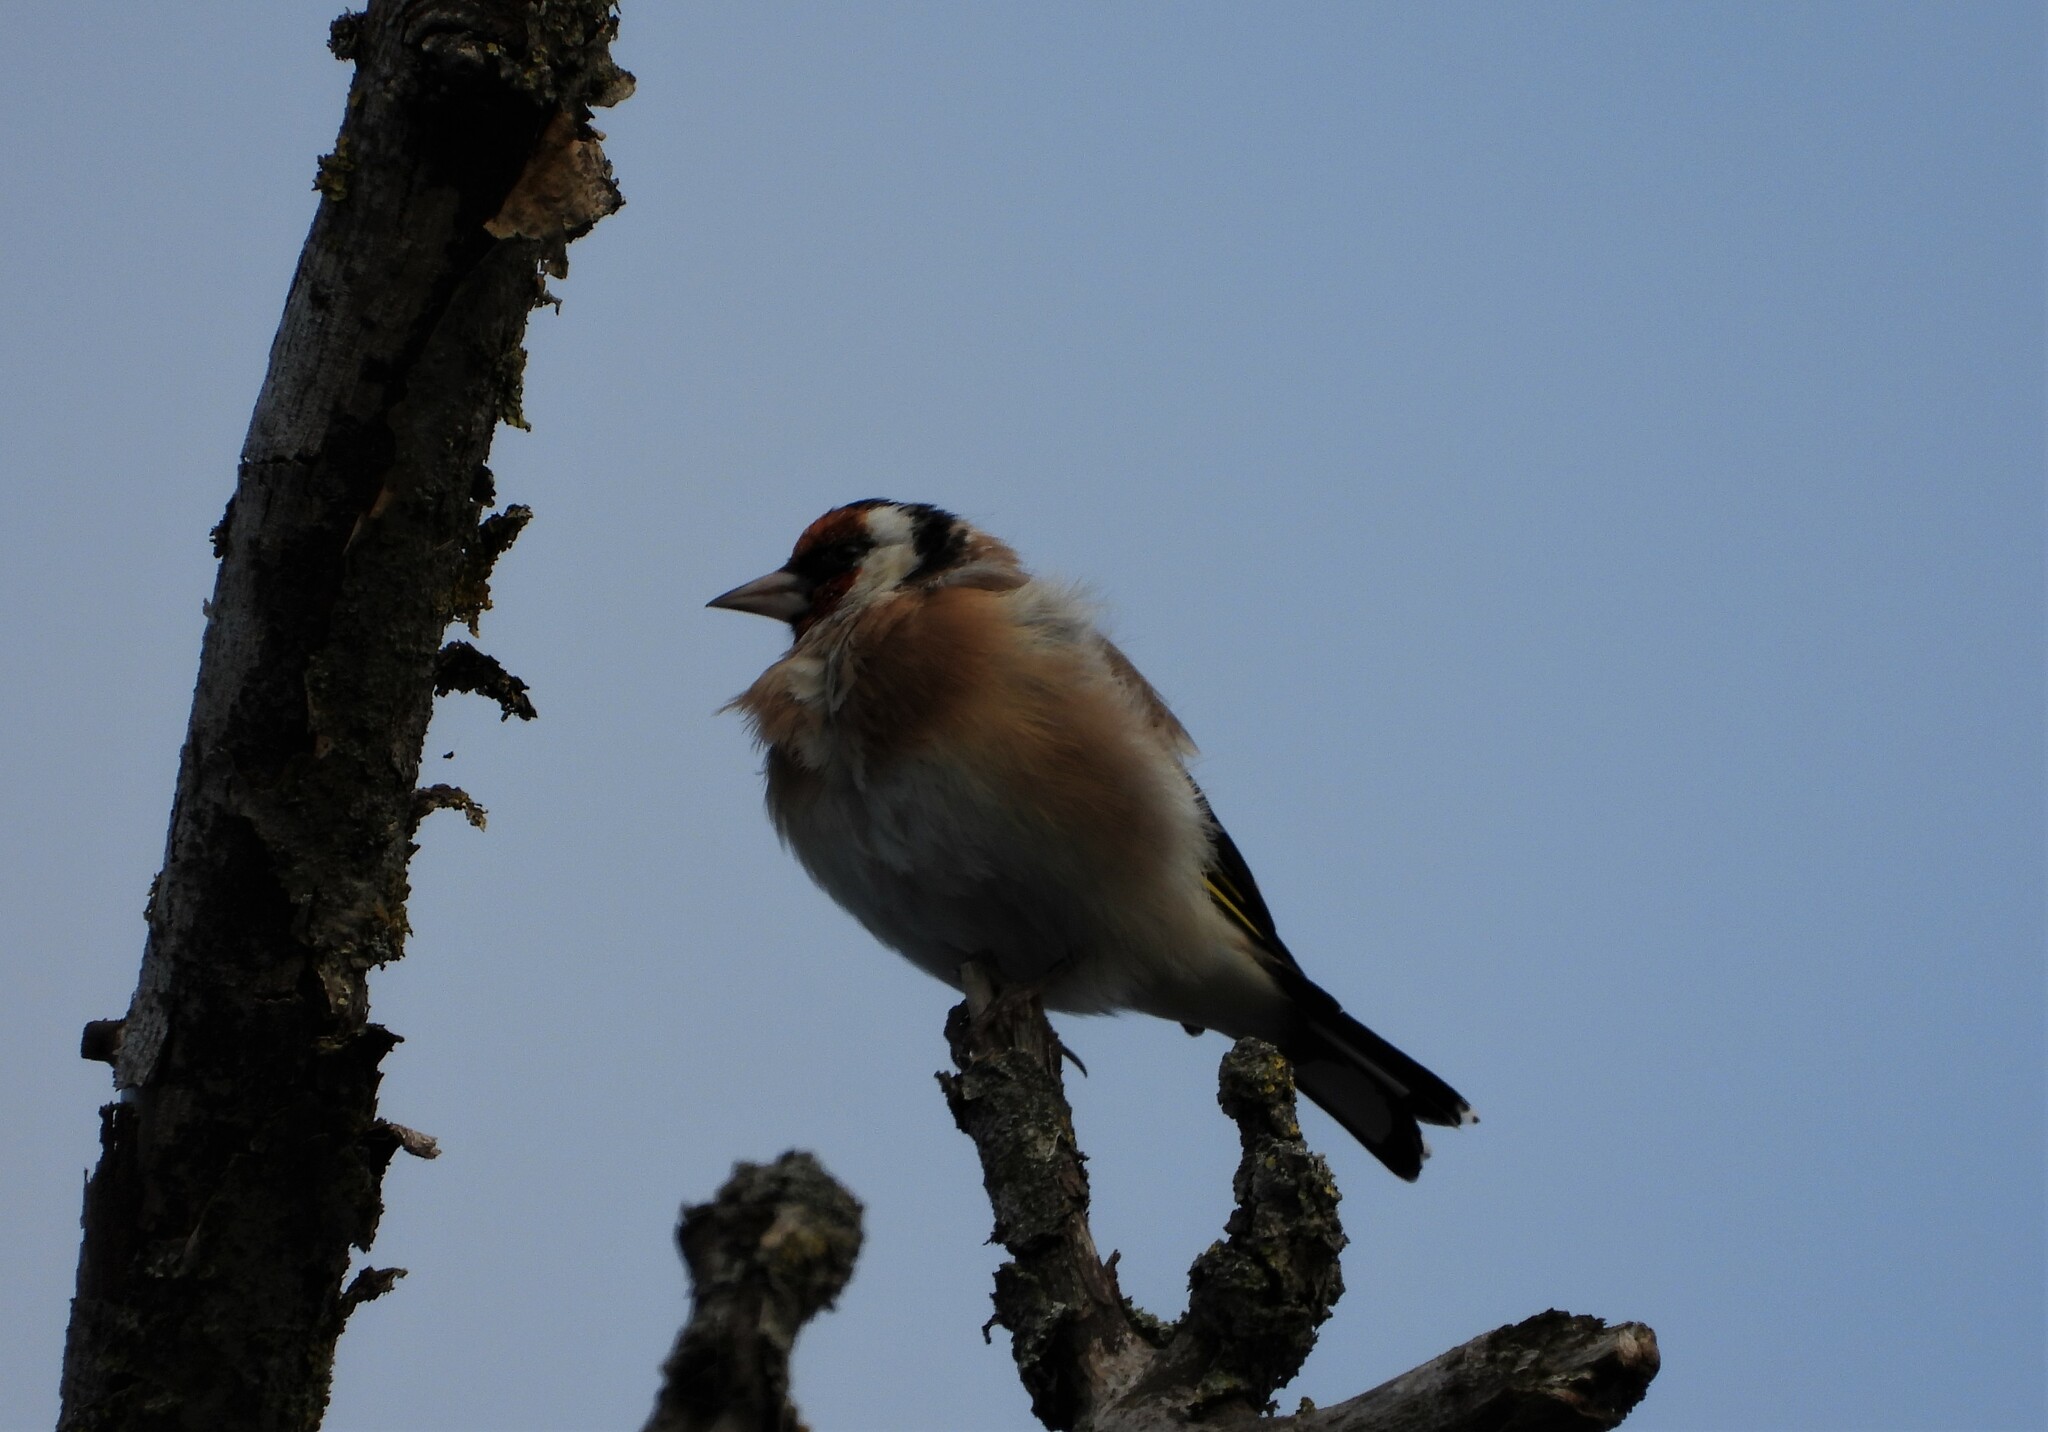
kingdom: Animalia
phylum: Chordata
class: Aves
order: Passeriformes
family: Fringillidae
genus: Carduelis
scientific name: Carduelis carduelis
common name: European goldfinch
